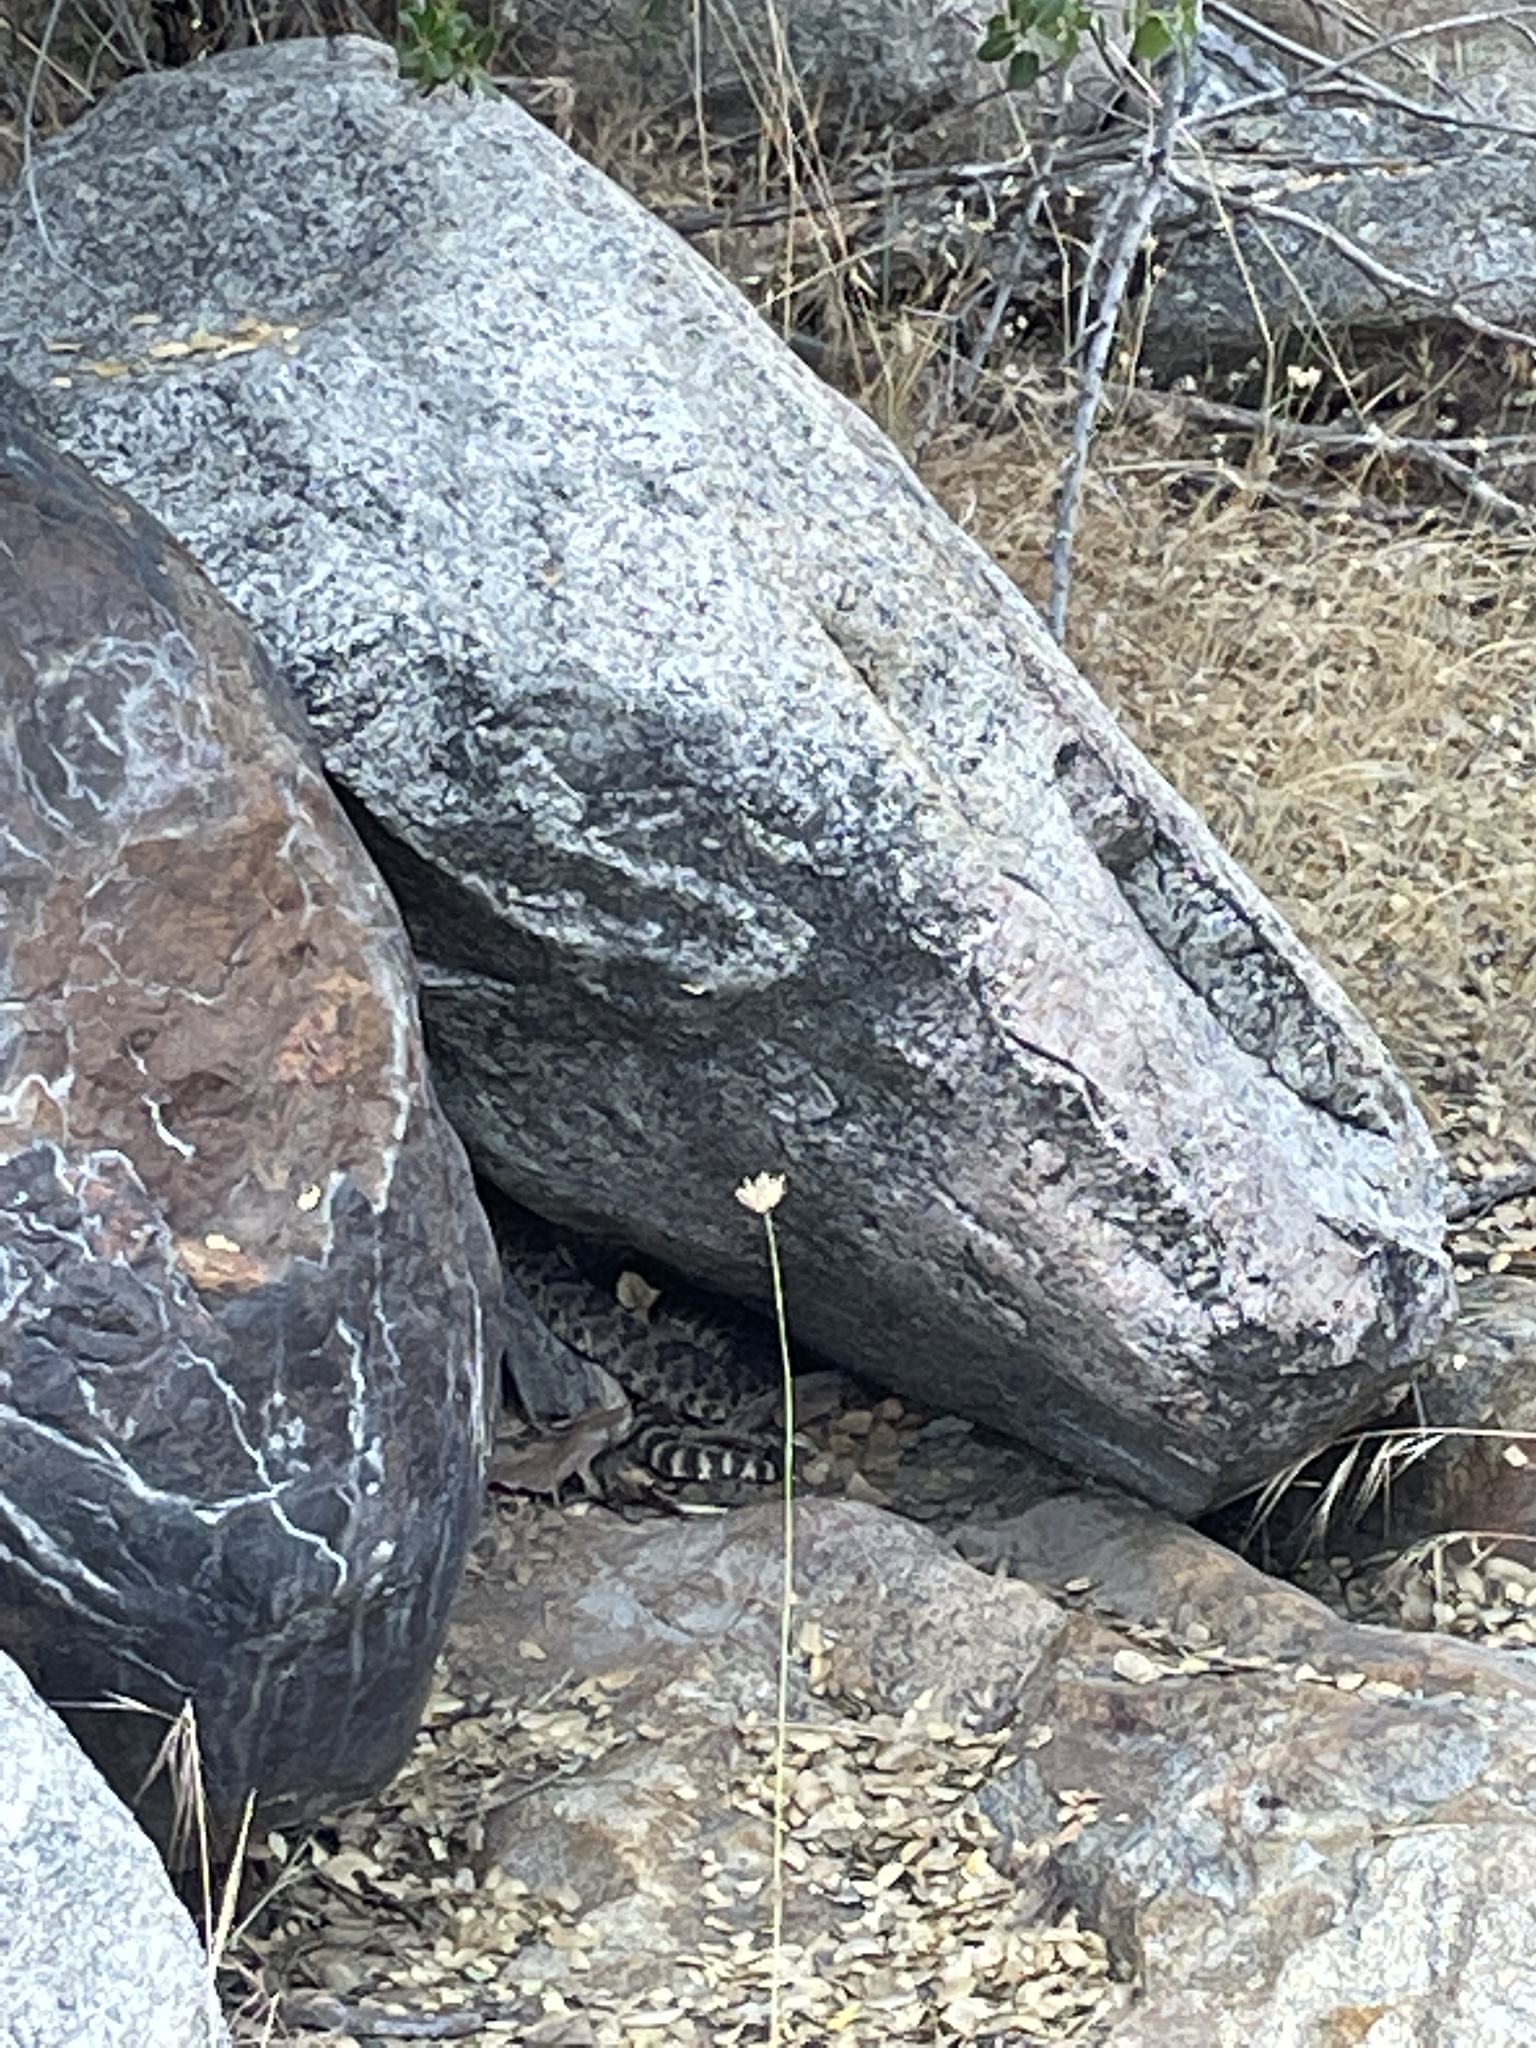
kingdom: Animalia
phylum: Chordata
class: Squamata
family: Viperidae
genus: Crotalus
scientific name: Crotalus oreganus
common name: Abyssus
